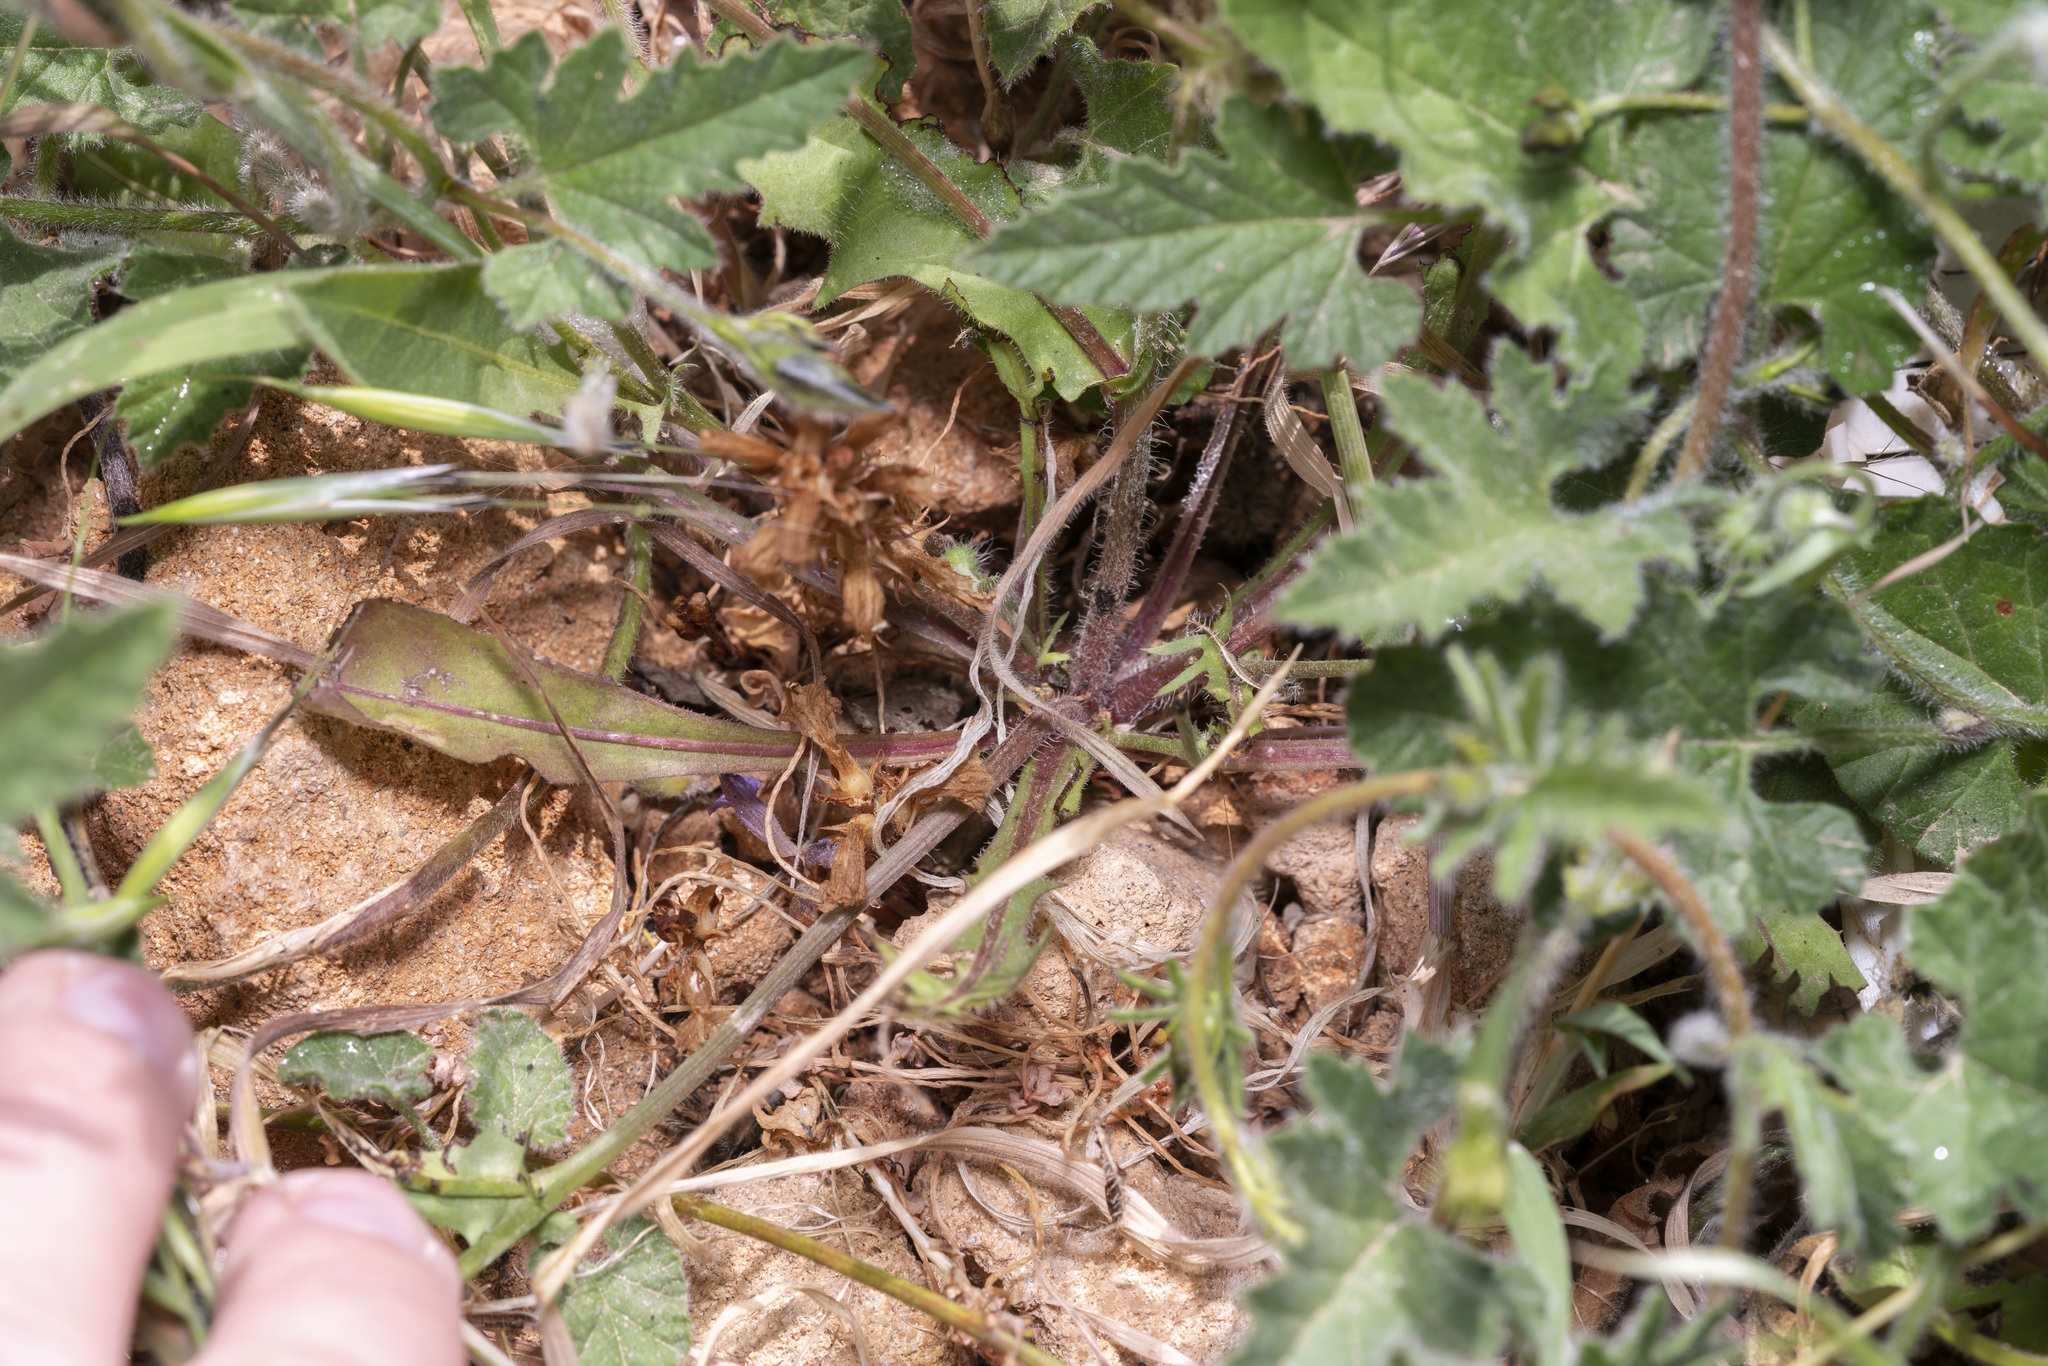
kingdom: Plantae
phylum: Tracheophyta
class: Magnoliopsida
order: Asterales
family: Asteraceae
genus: Crepis
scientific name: Crepis commutata
